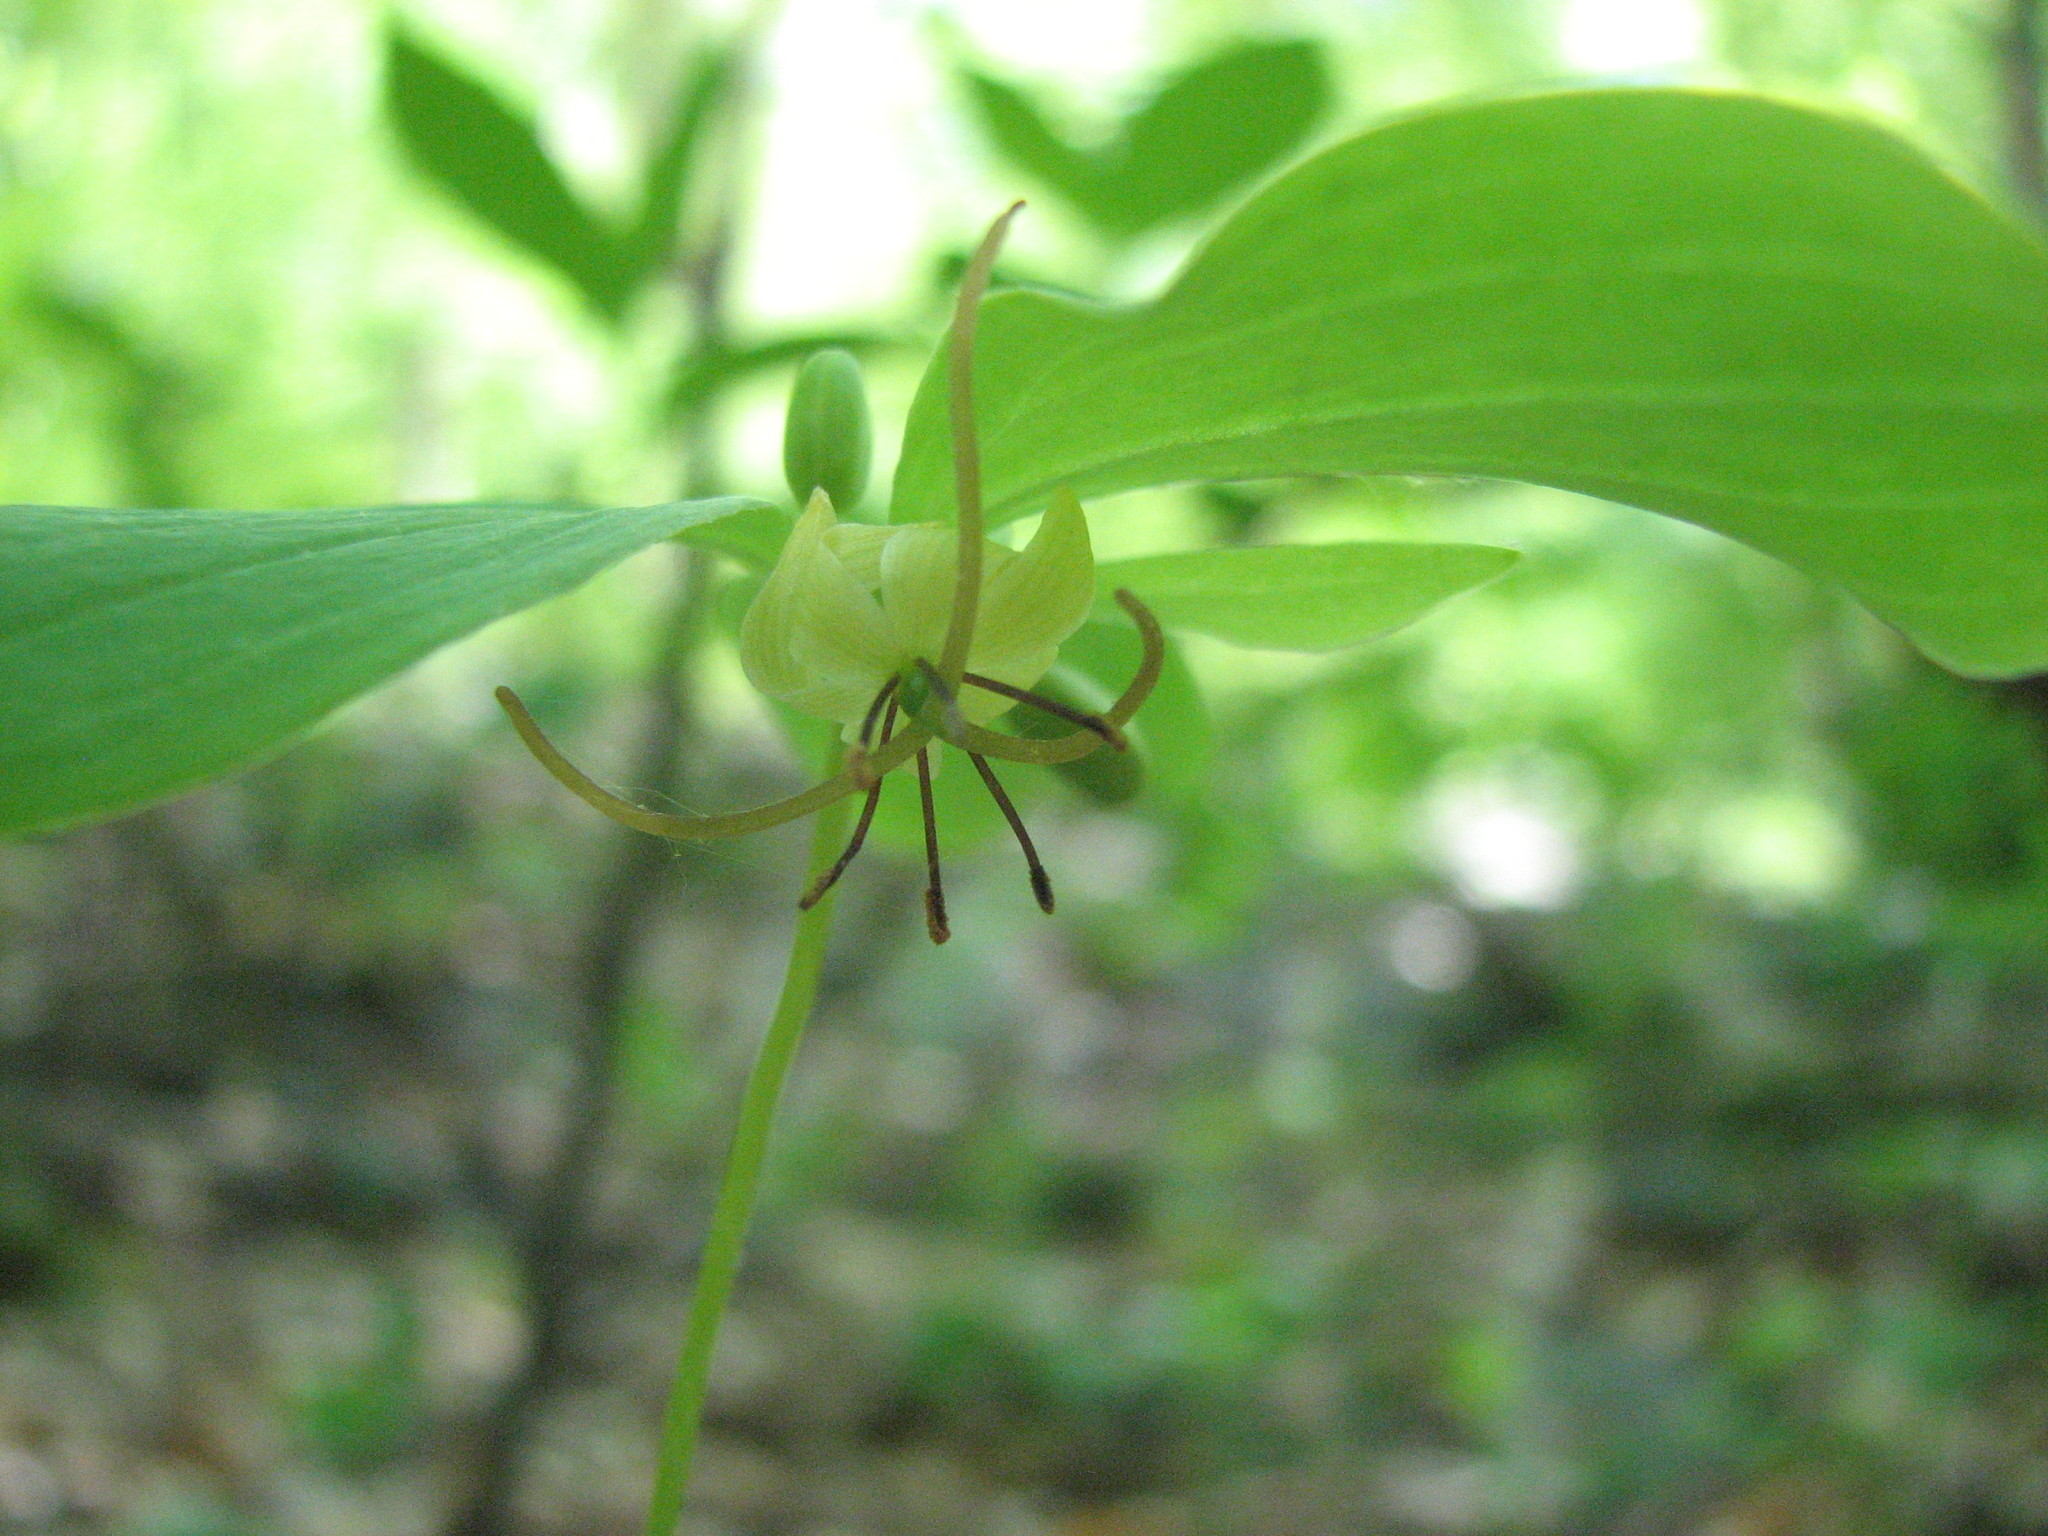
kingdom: Plantae
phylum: Tracheophyta
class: Liliopsida
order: Liliales
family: Liliaceae
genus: Medeola
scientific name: Medeola virginiana
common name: Indian cucumber-root
